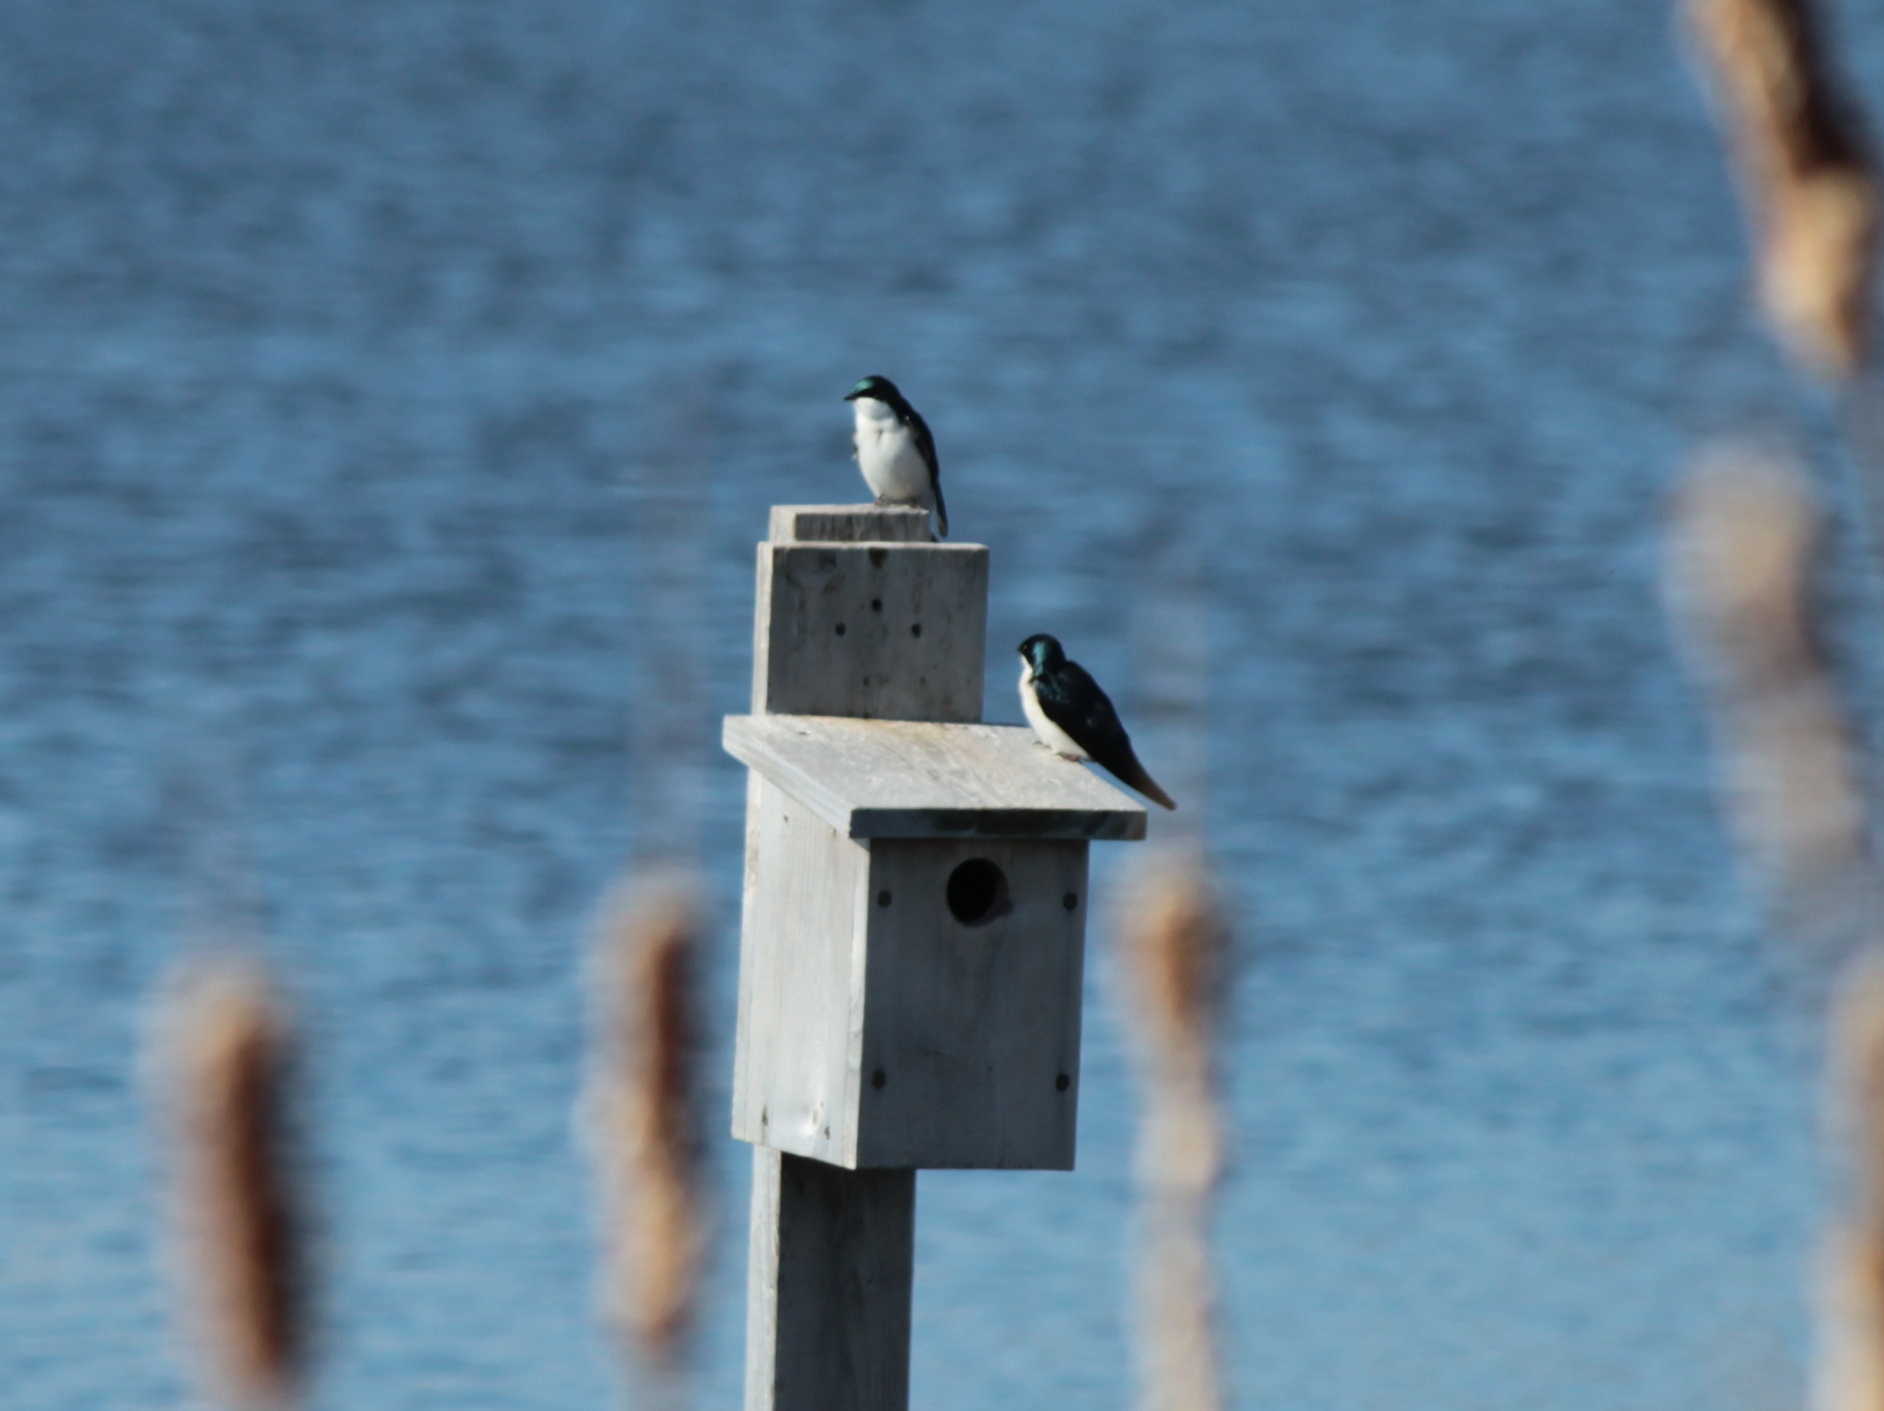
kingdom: Animalia
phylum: Chordata
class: Aves
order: Passeriformes
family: Hirundinidae
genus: Tachycineta
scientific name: Tachycineta bicolor
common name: Tree swallow
